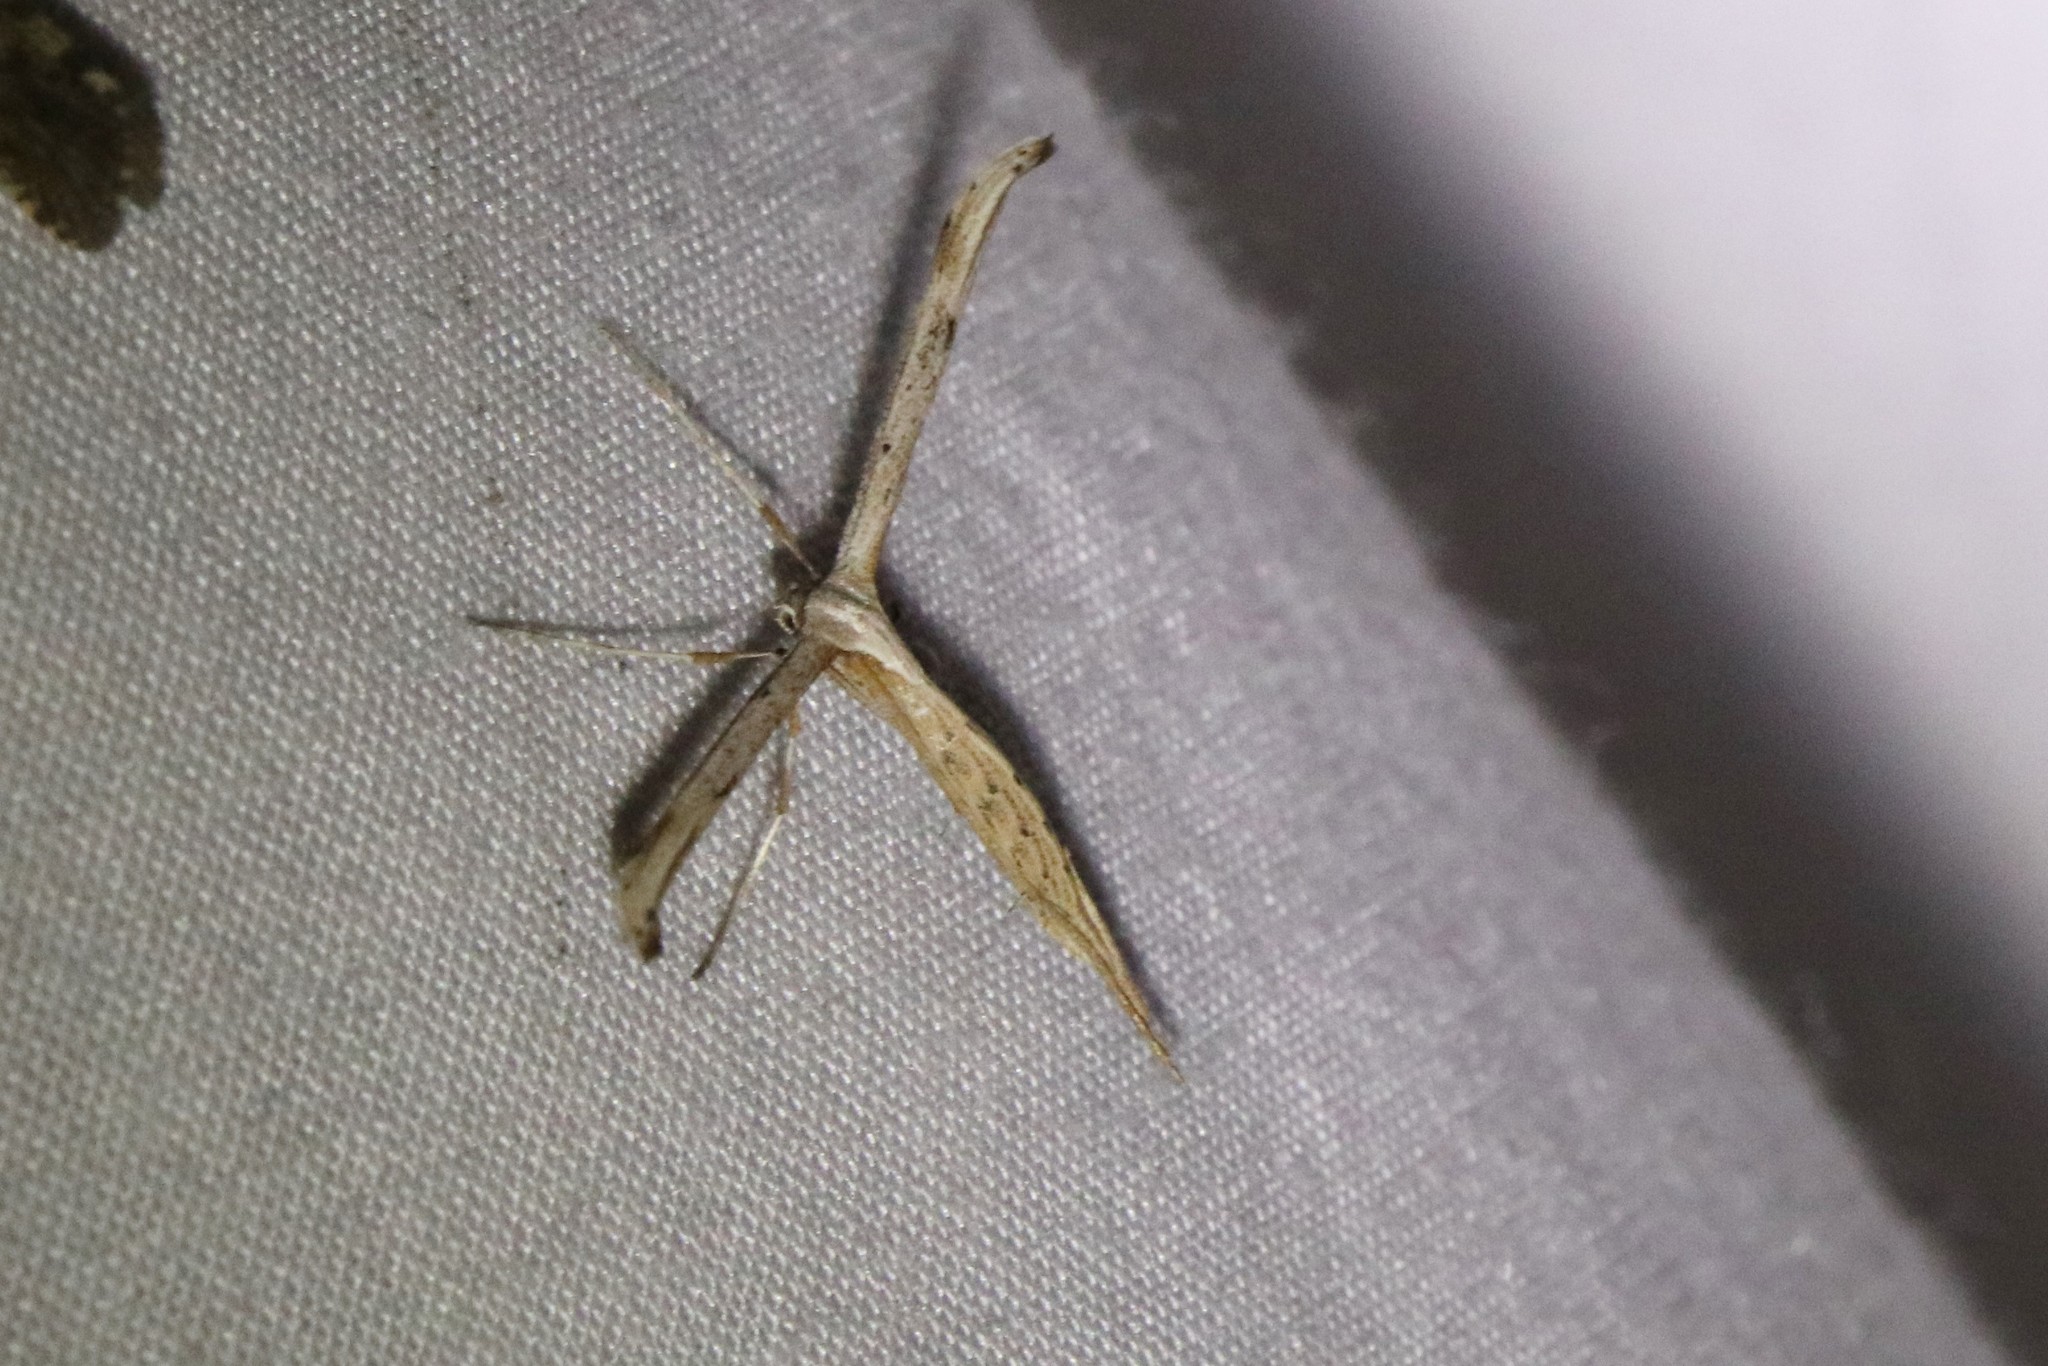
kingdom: Animalia
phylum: Arthropoda
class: Insecta
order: Lepidoptera
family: Pterophoridae
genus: Emmelina
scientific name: Emmelina monodactyla
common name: Common plume
